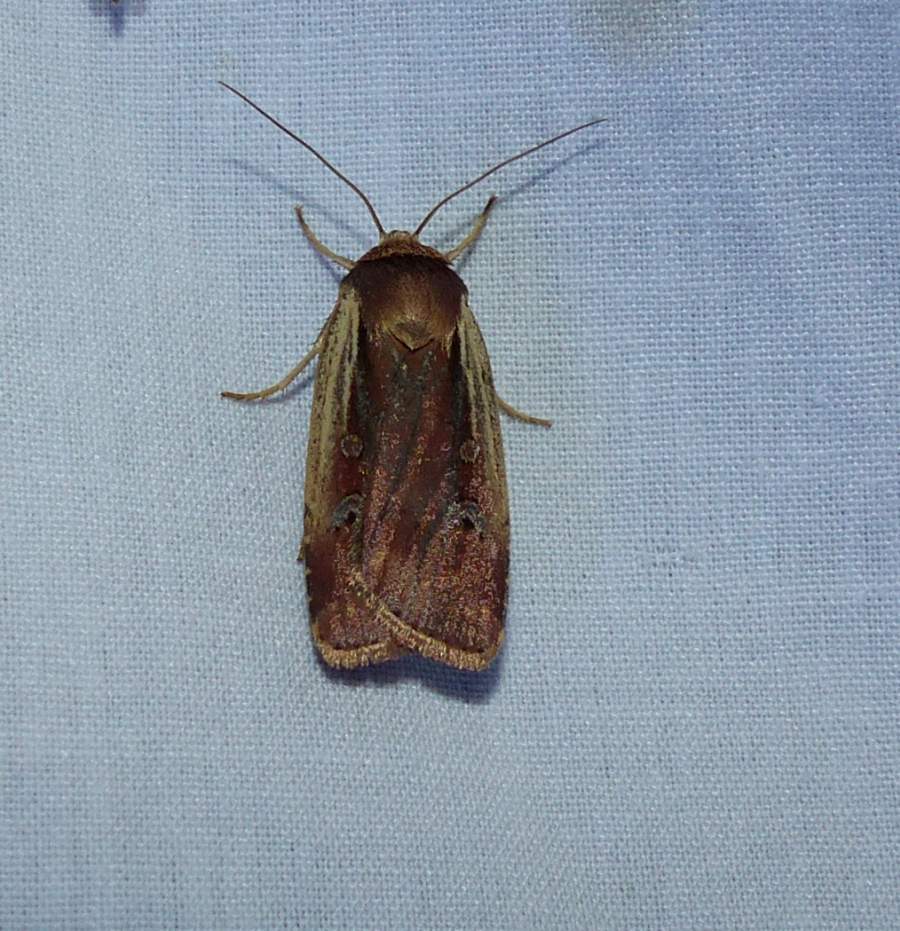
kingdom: Animalia
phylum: Arthropoda
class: Insecta
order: Lepidoptera
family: Noctuidae
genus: Ochropleura
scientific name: Ochropleura implecta
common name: Flame-shouldered dart
